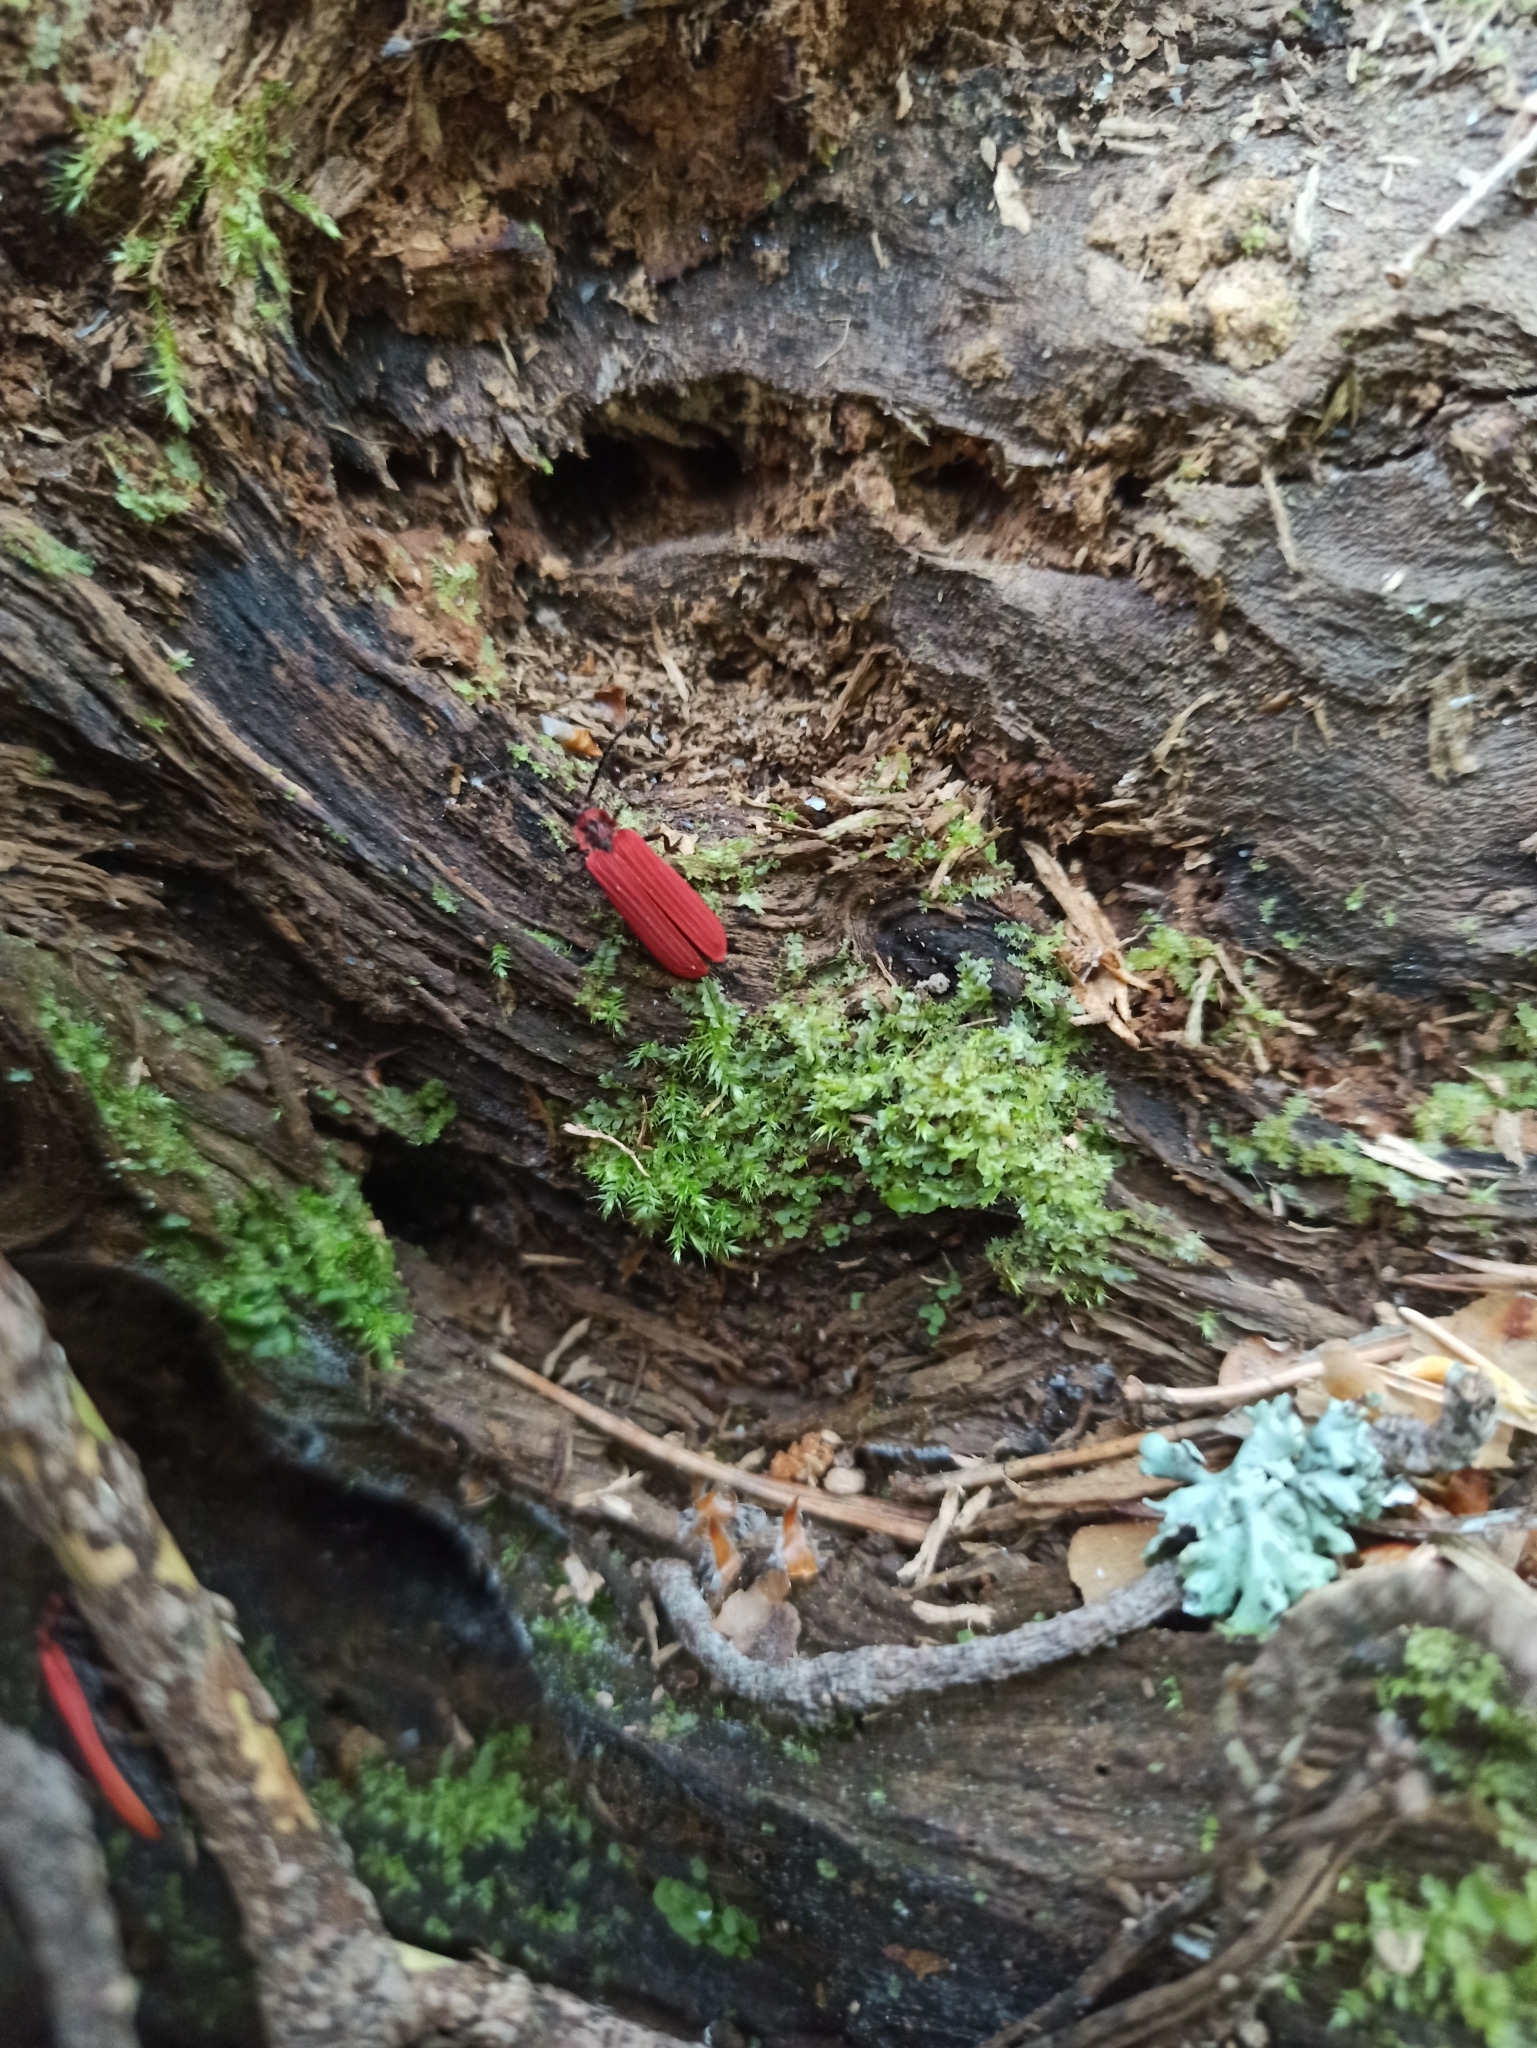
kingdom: Animalia
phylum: Arthropoda
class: Insecta
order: Coleoptera
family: Lycidae
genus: Dictyoptera
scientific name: Dictyoptera aurora
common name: Golden net-winged beetle
